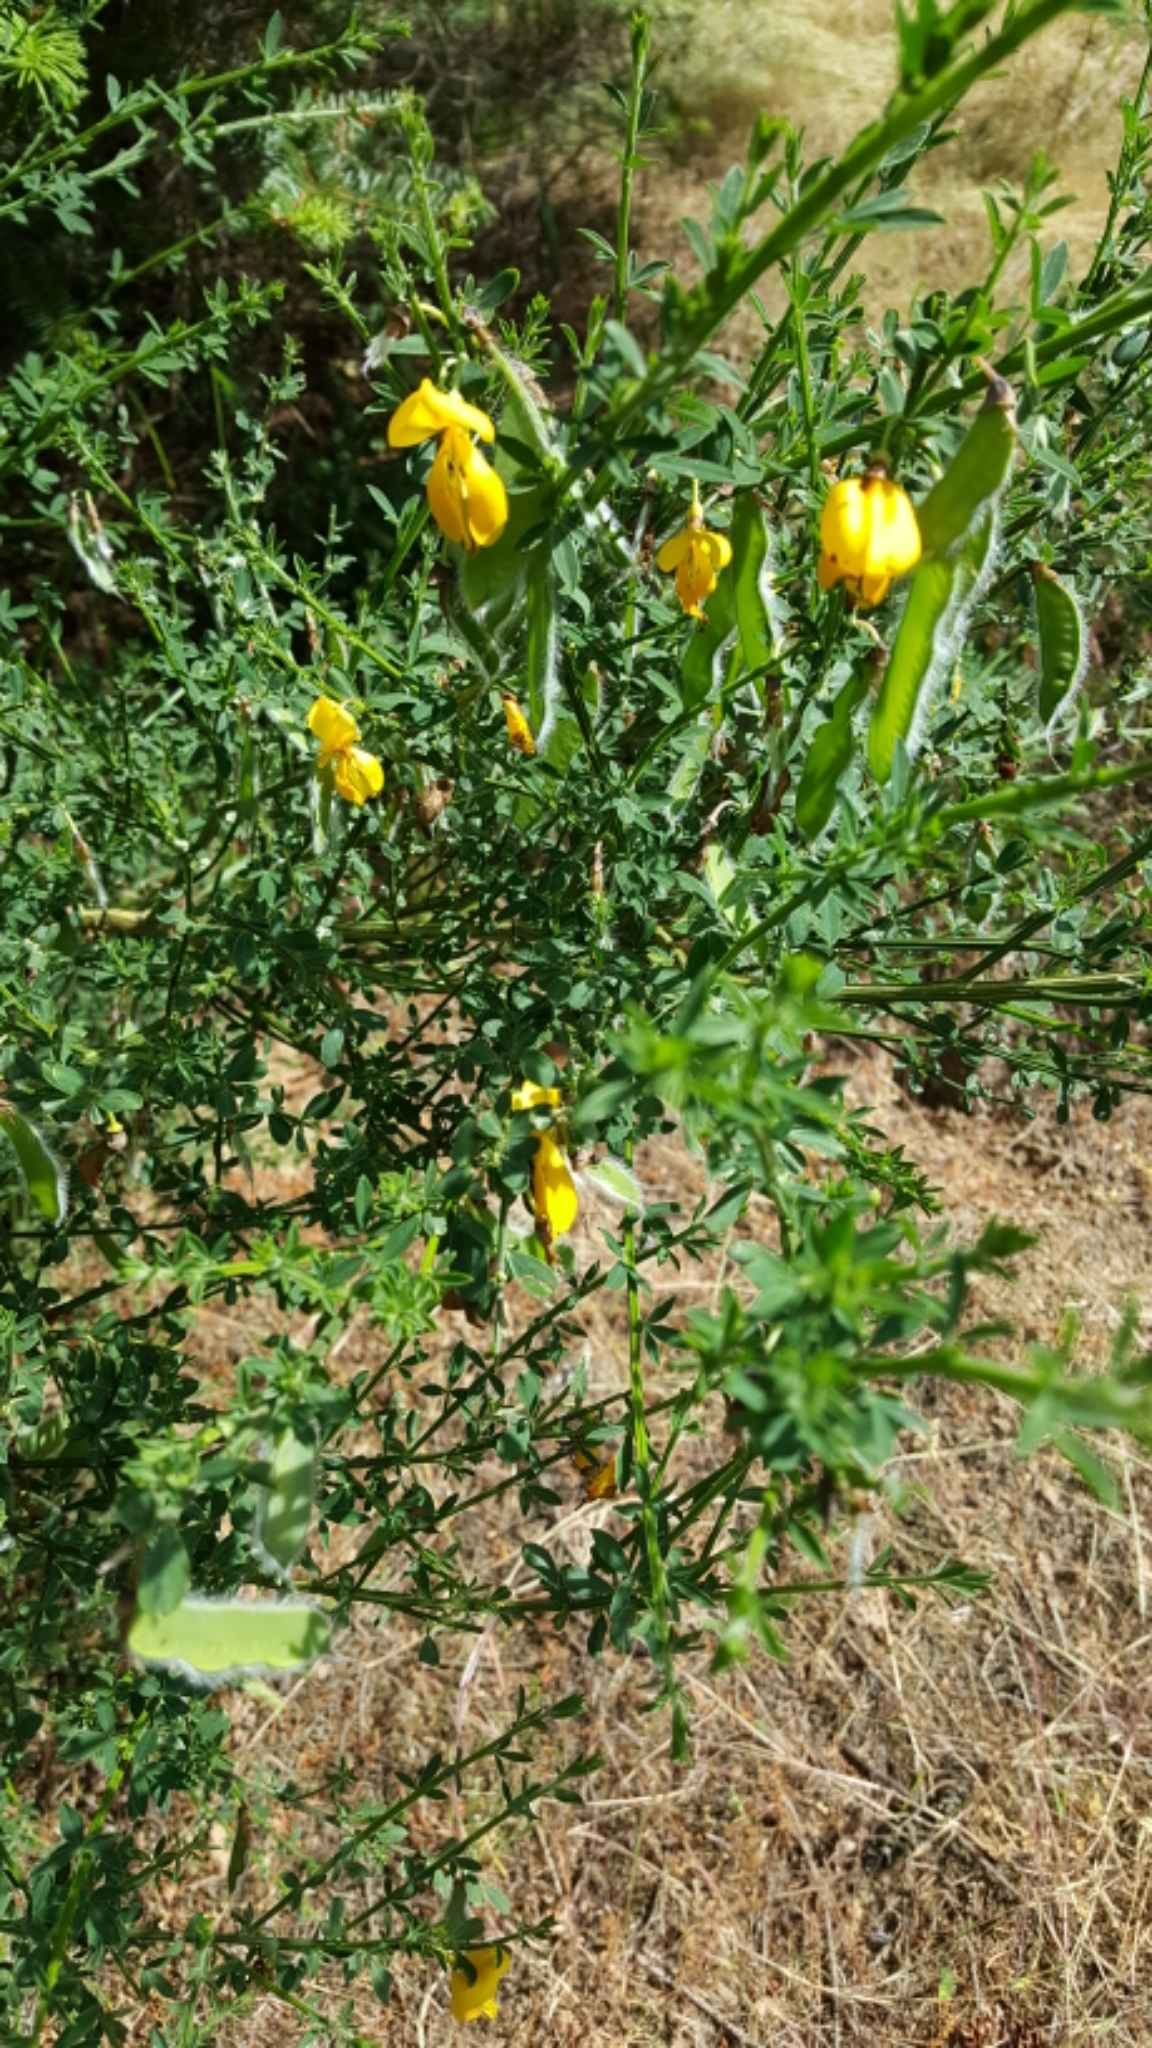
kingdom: Plantae
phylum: Tracheophyta
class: Magnoliopsida
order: Fabales
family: Fabaceae
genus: Cytisus
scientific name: Cytisus scoparius
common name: Scotch broom
